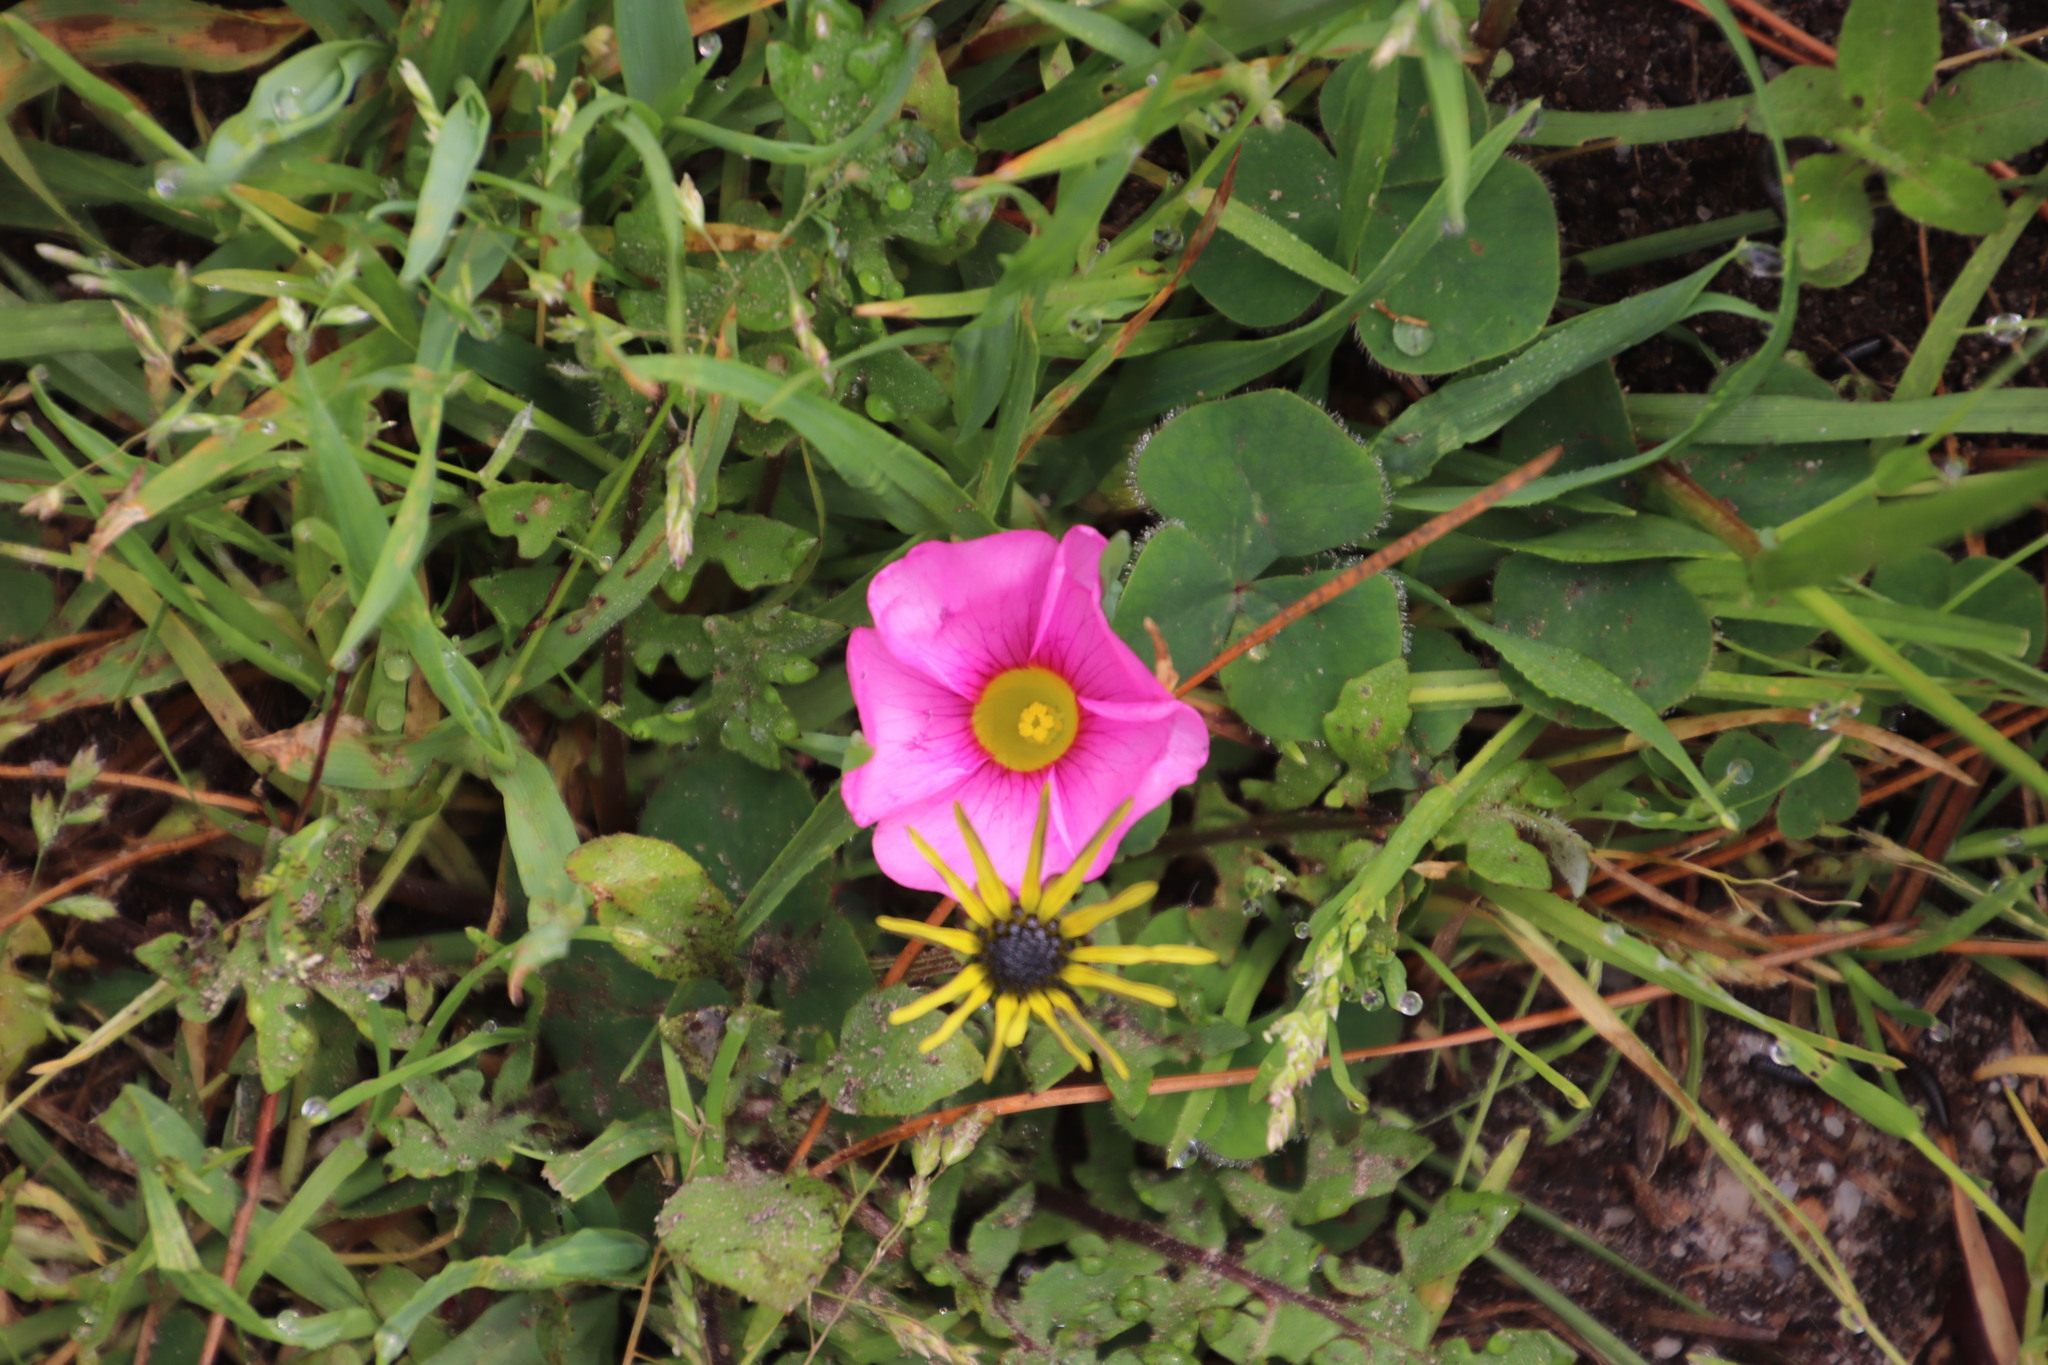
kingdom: Plantae
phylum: Tracheophyta
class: Magnoliopsida
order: Oxalidales
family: Oxalidaceae
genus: Oxalis
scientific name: Oxalis purpurea
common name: Purple woodsorrel
